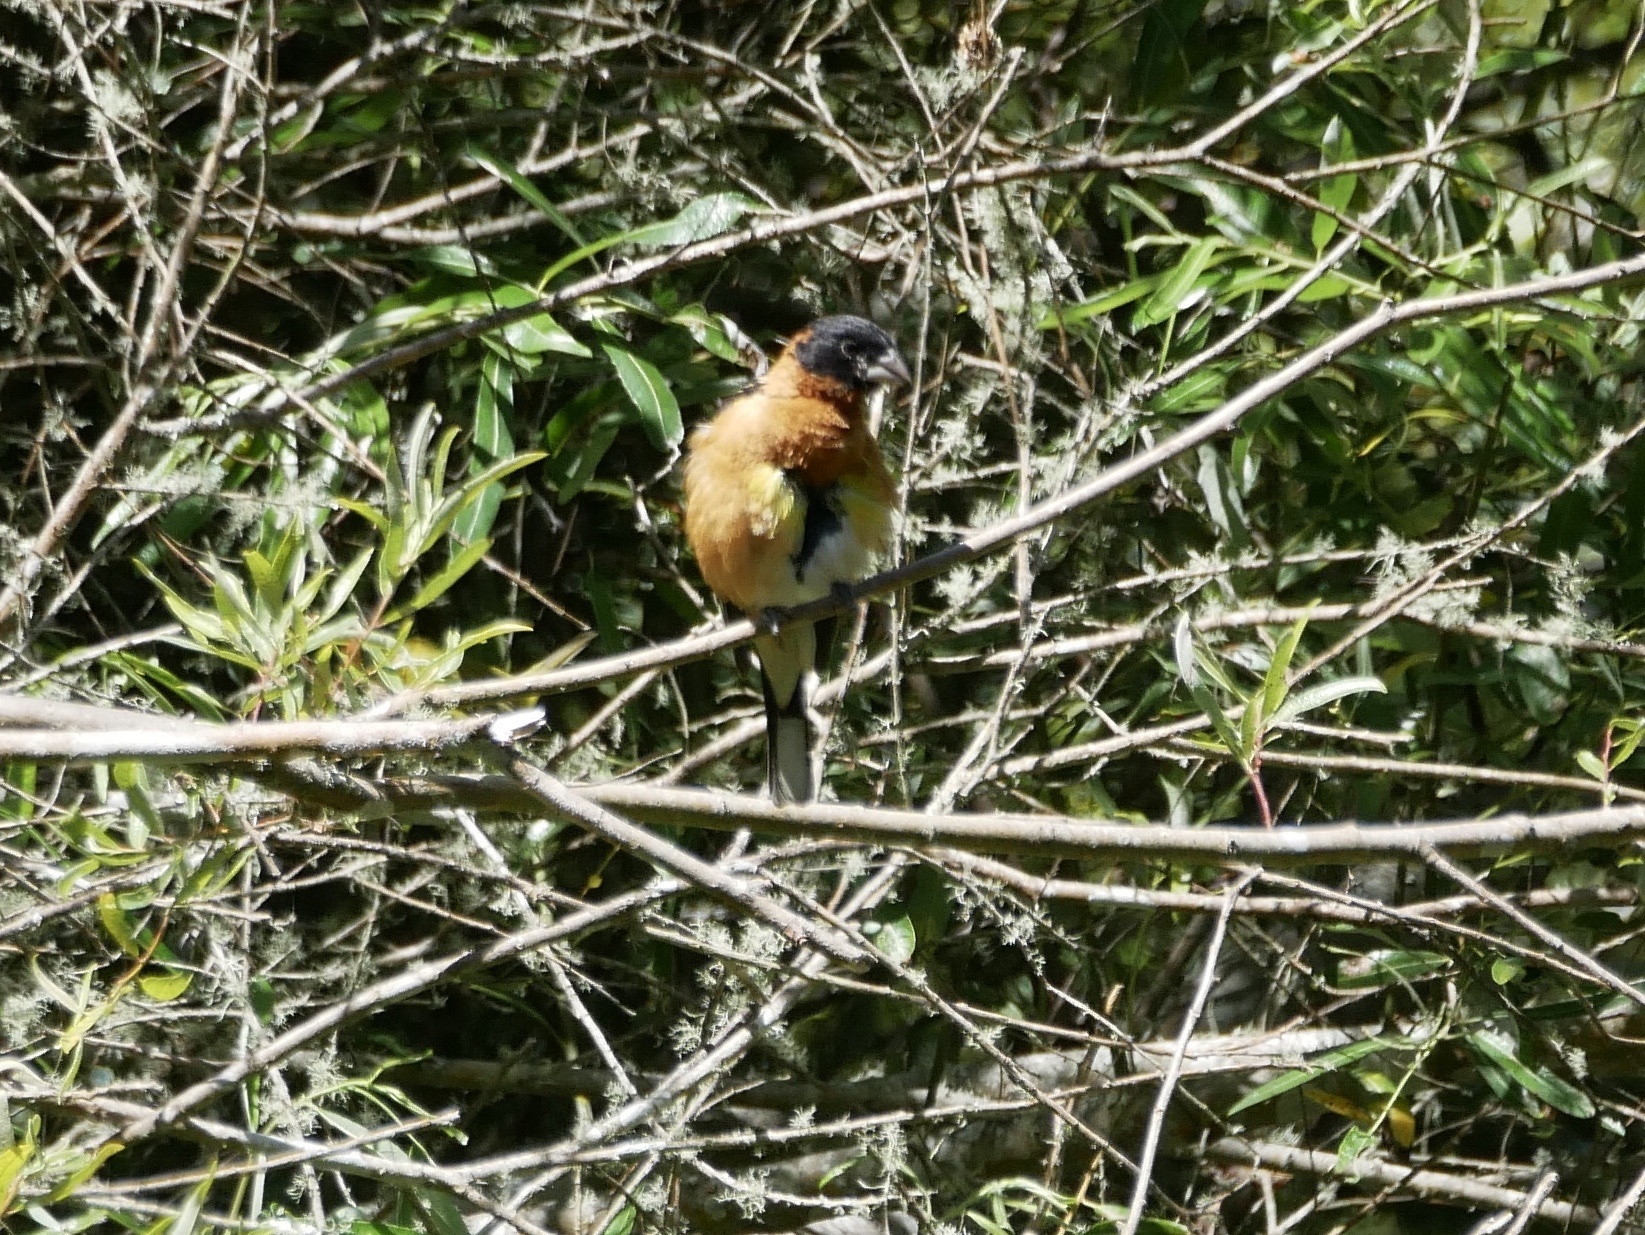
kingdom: Animalia
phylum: Chordata
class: Aves
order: Passeriformes
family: Cardinalidae
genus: Pheucticus
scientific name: Pheucticus melanocephalus
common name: Black-headed grosbeak
